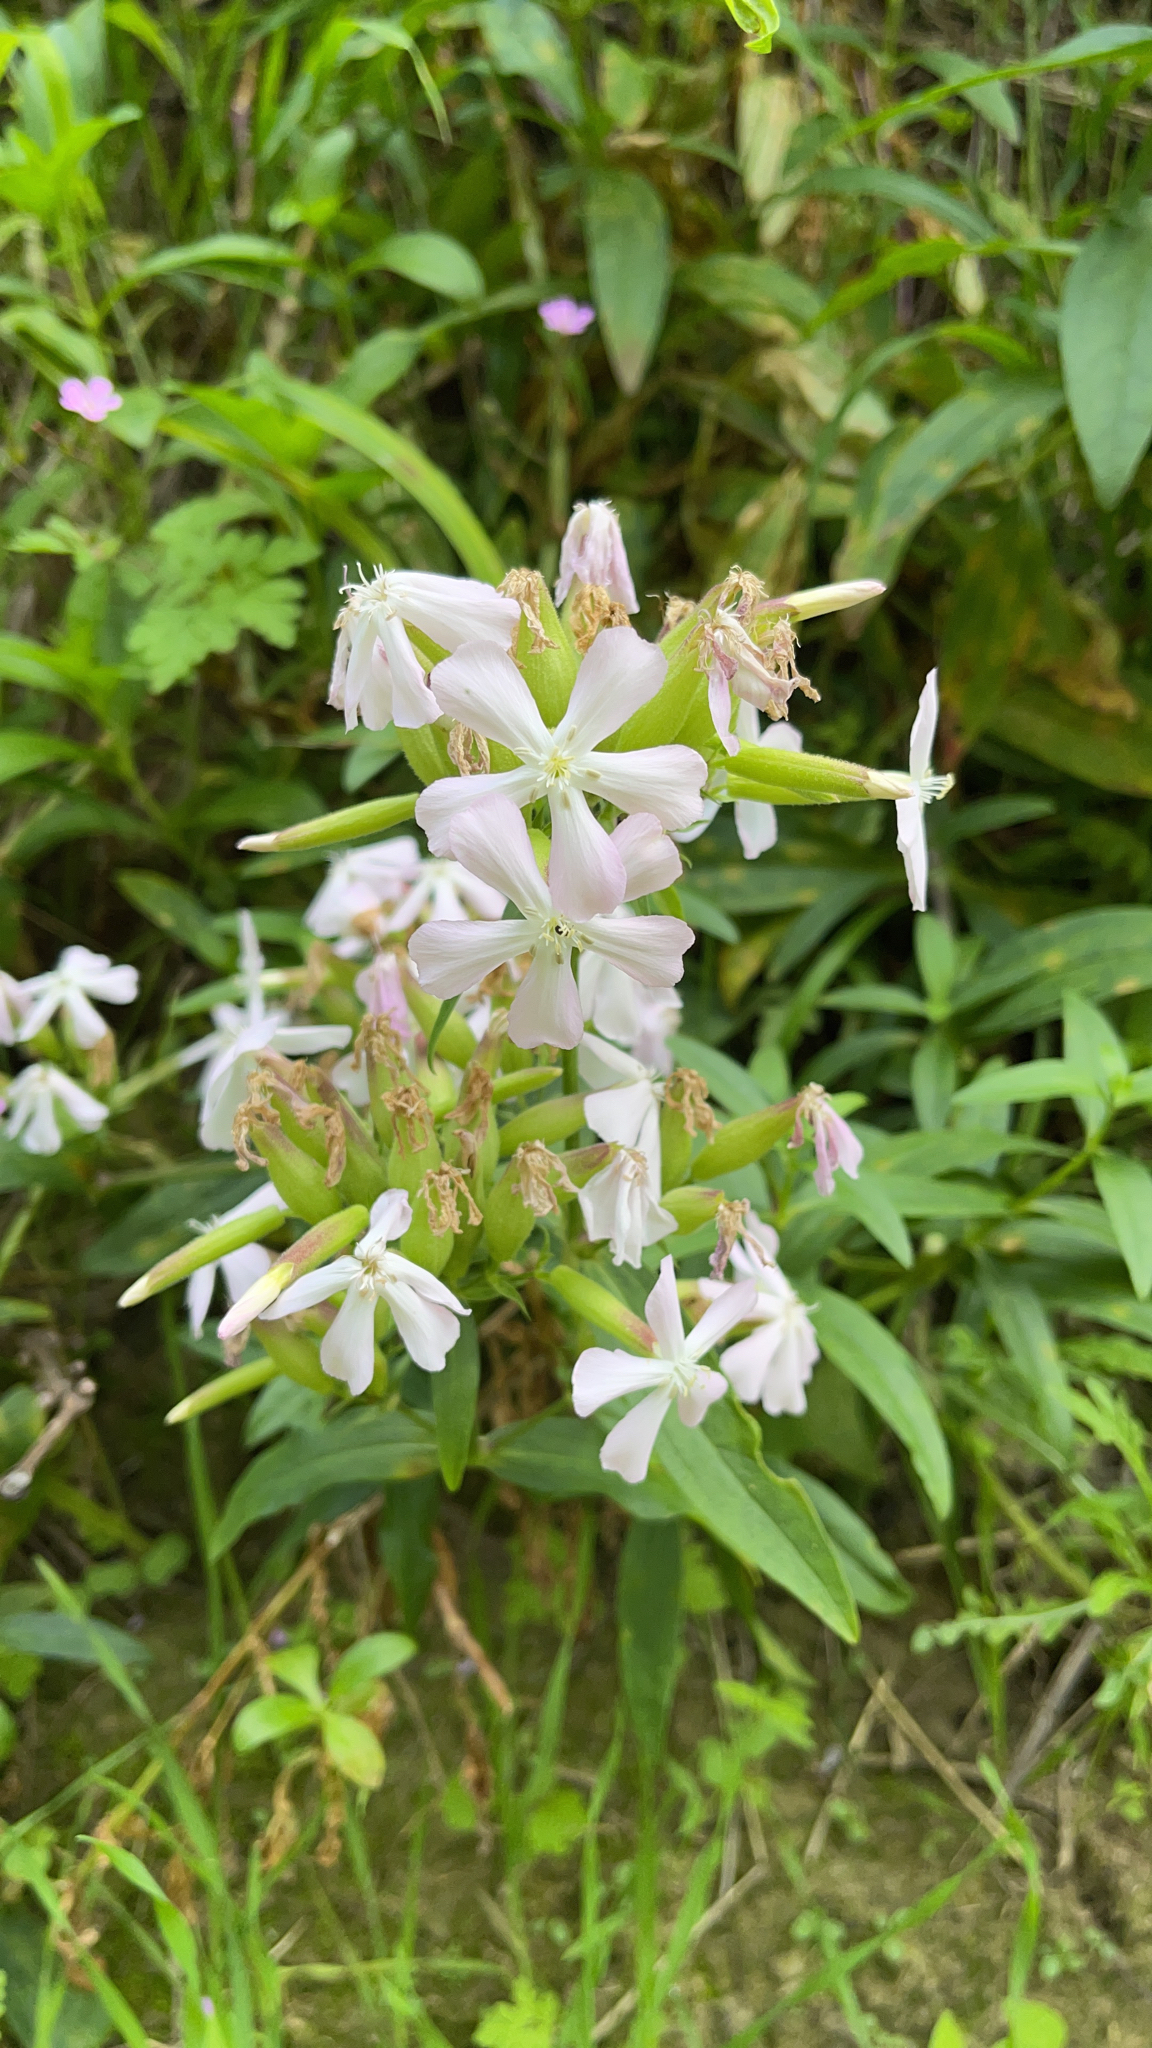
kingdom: Plantae
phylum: Tracheophyta
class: Magnoliopsida
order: Caryophyllales
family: Caryophyllaceae
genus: Saponaria
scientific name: Saponaria officinalis
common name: Soapwort
